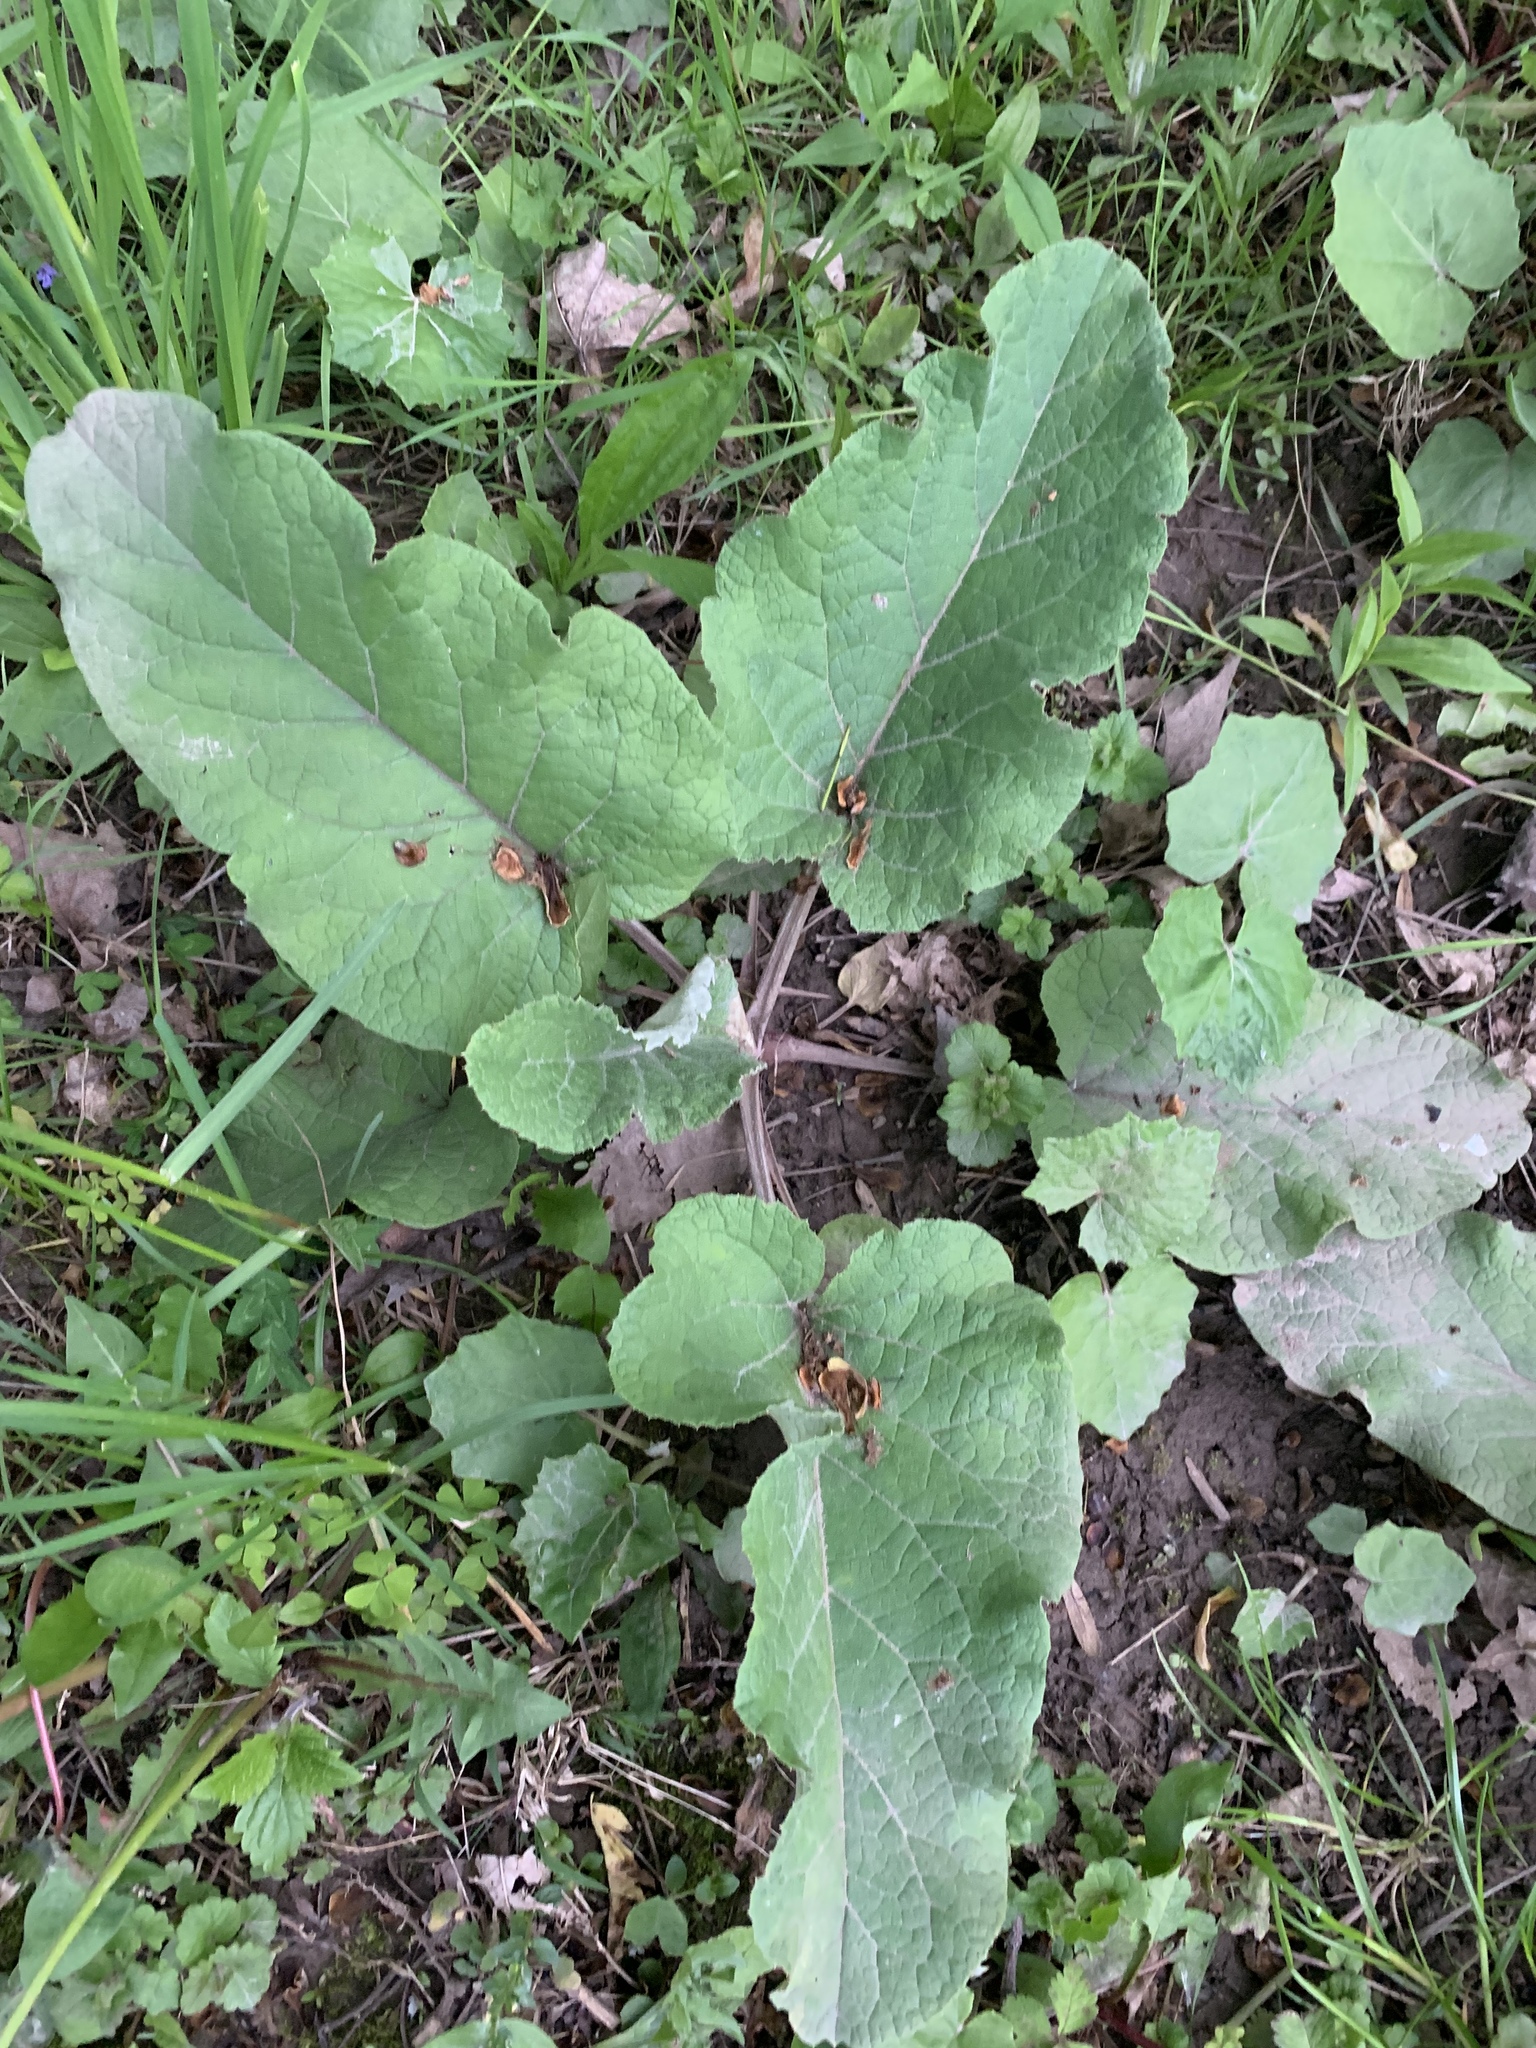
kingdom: Plantae
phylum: Tracheophyta
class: Magnoliopsida
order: Asterales
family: Asteraceae
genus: Arctium
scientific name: Arctium
